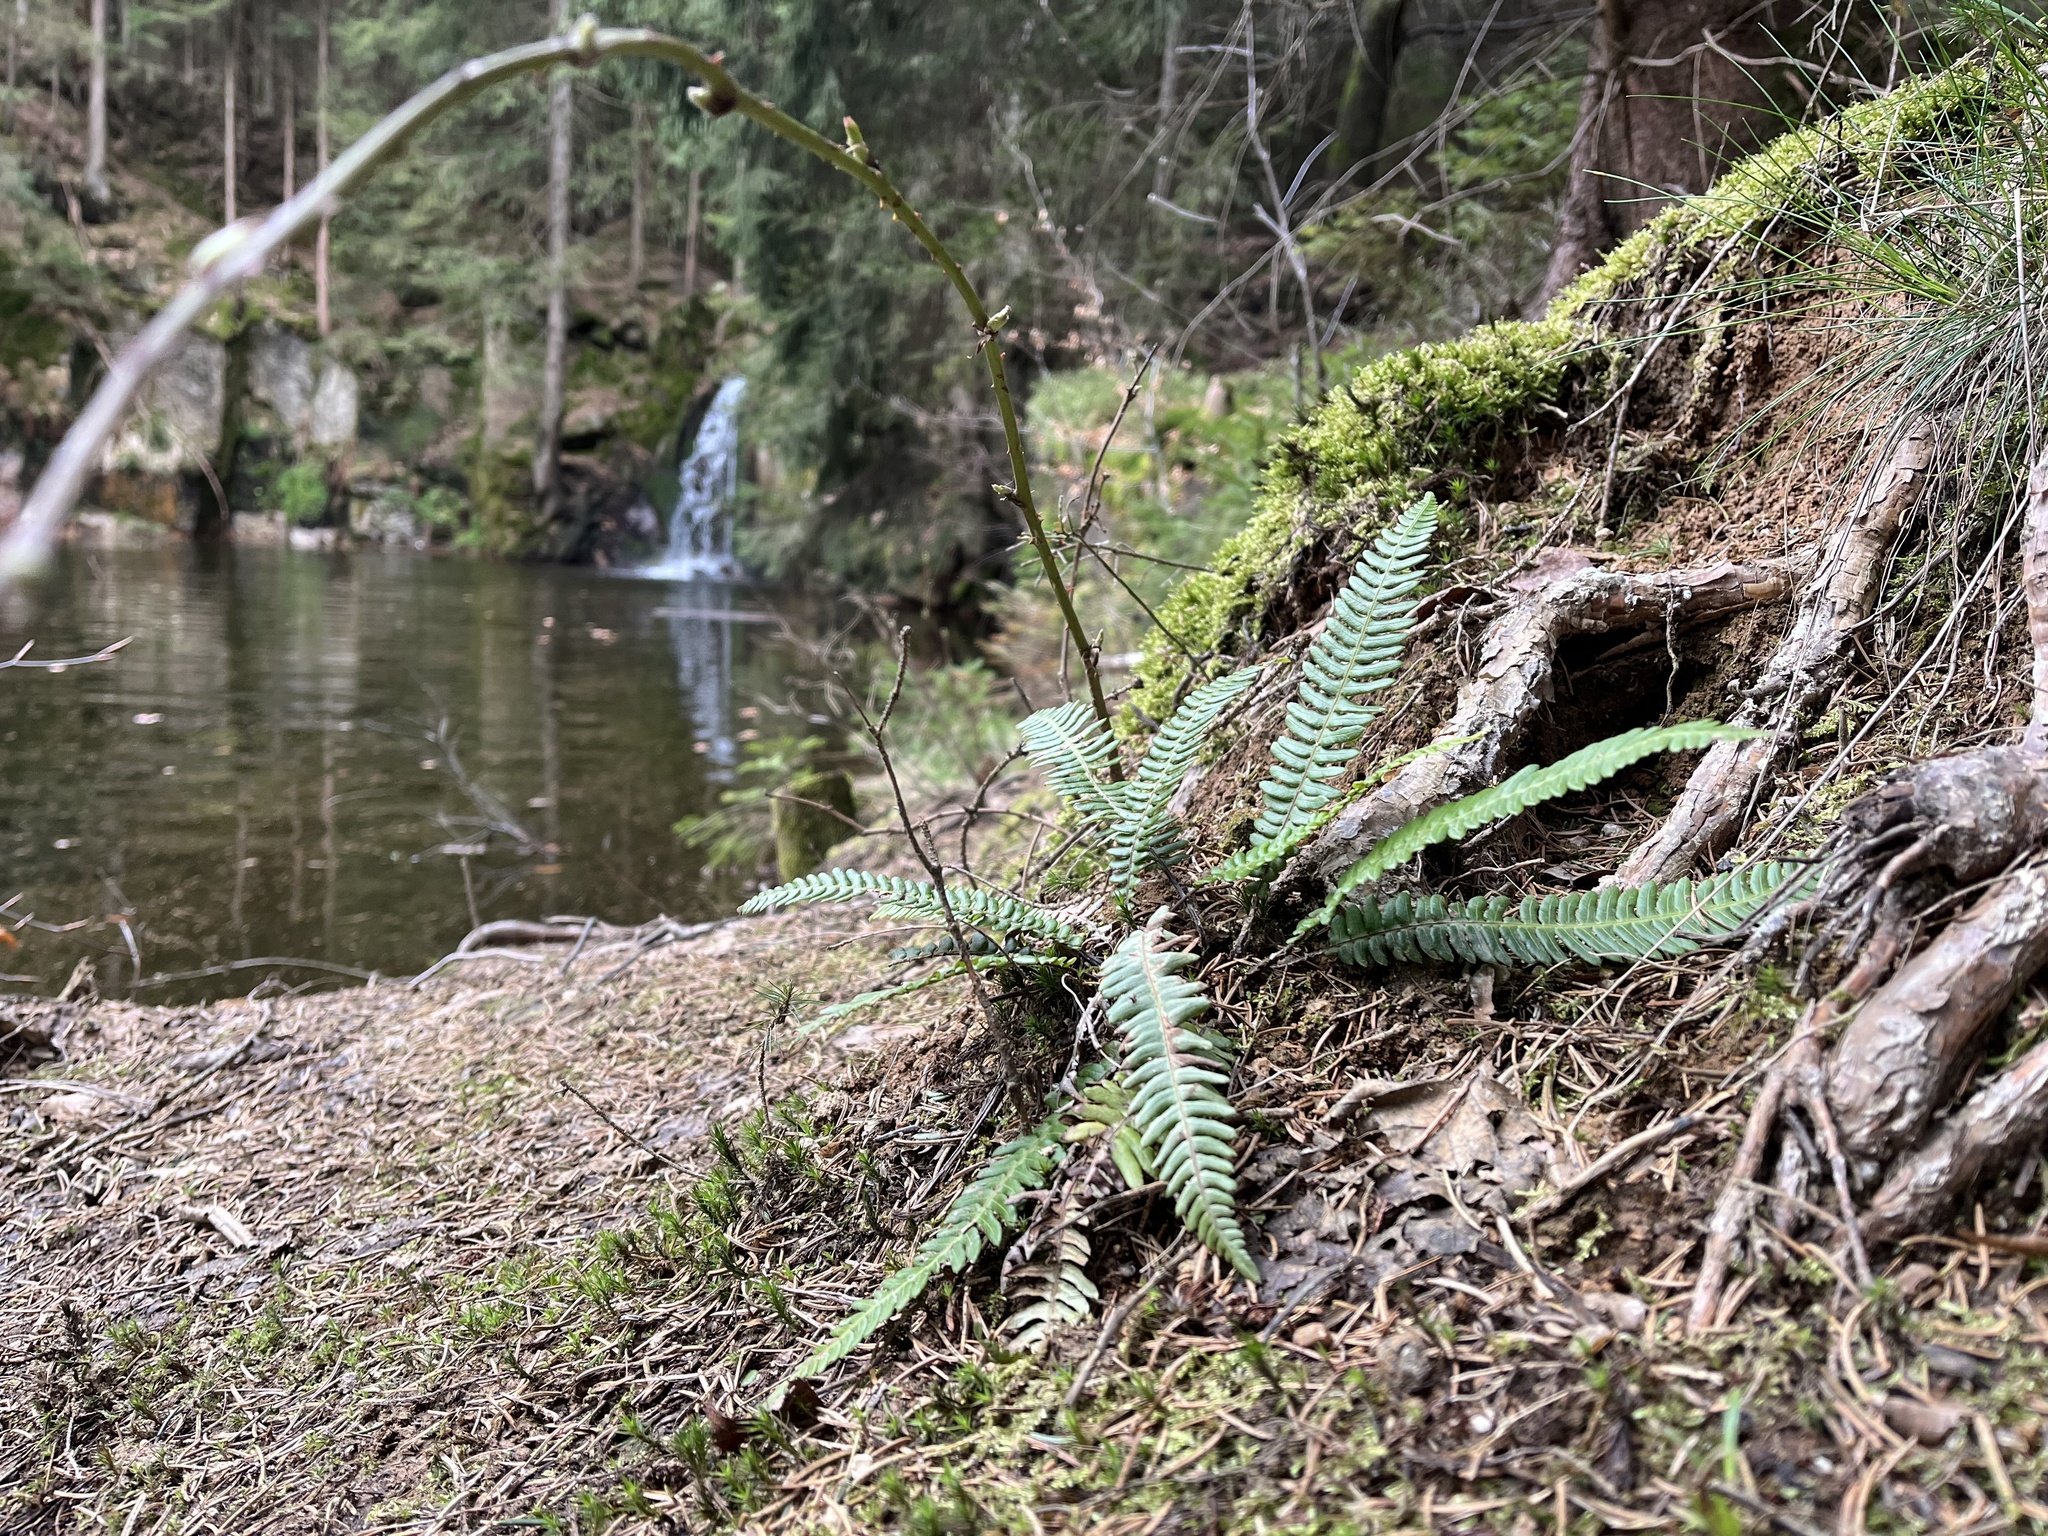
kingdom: Plantae
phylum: Tracheophyta
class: Polypodiopsida
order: Polypodiales
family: Blechnaceae
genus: Struthiopteris
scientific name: Struthiopteris spicant
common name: Deer fern
